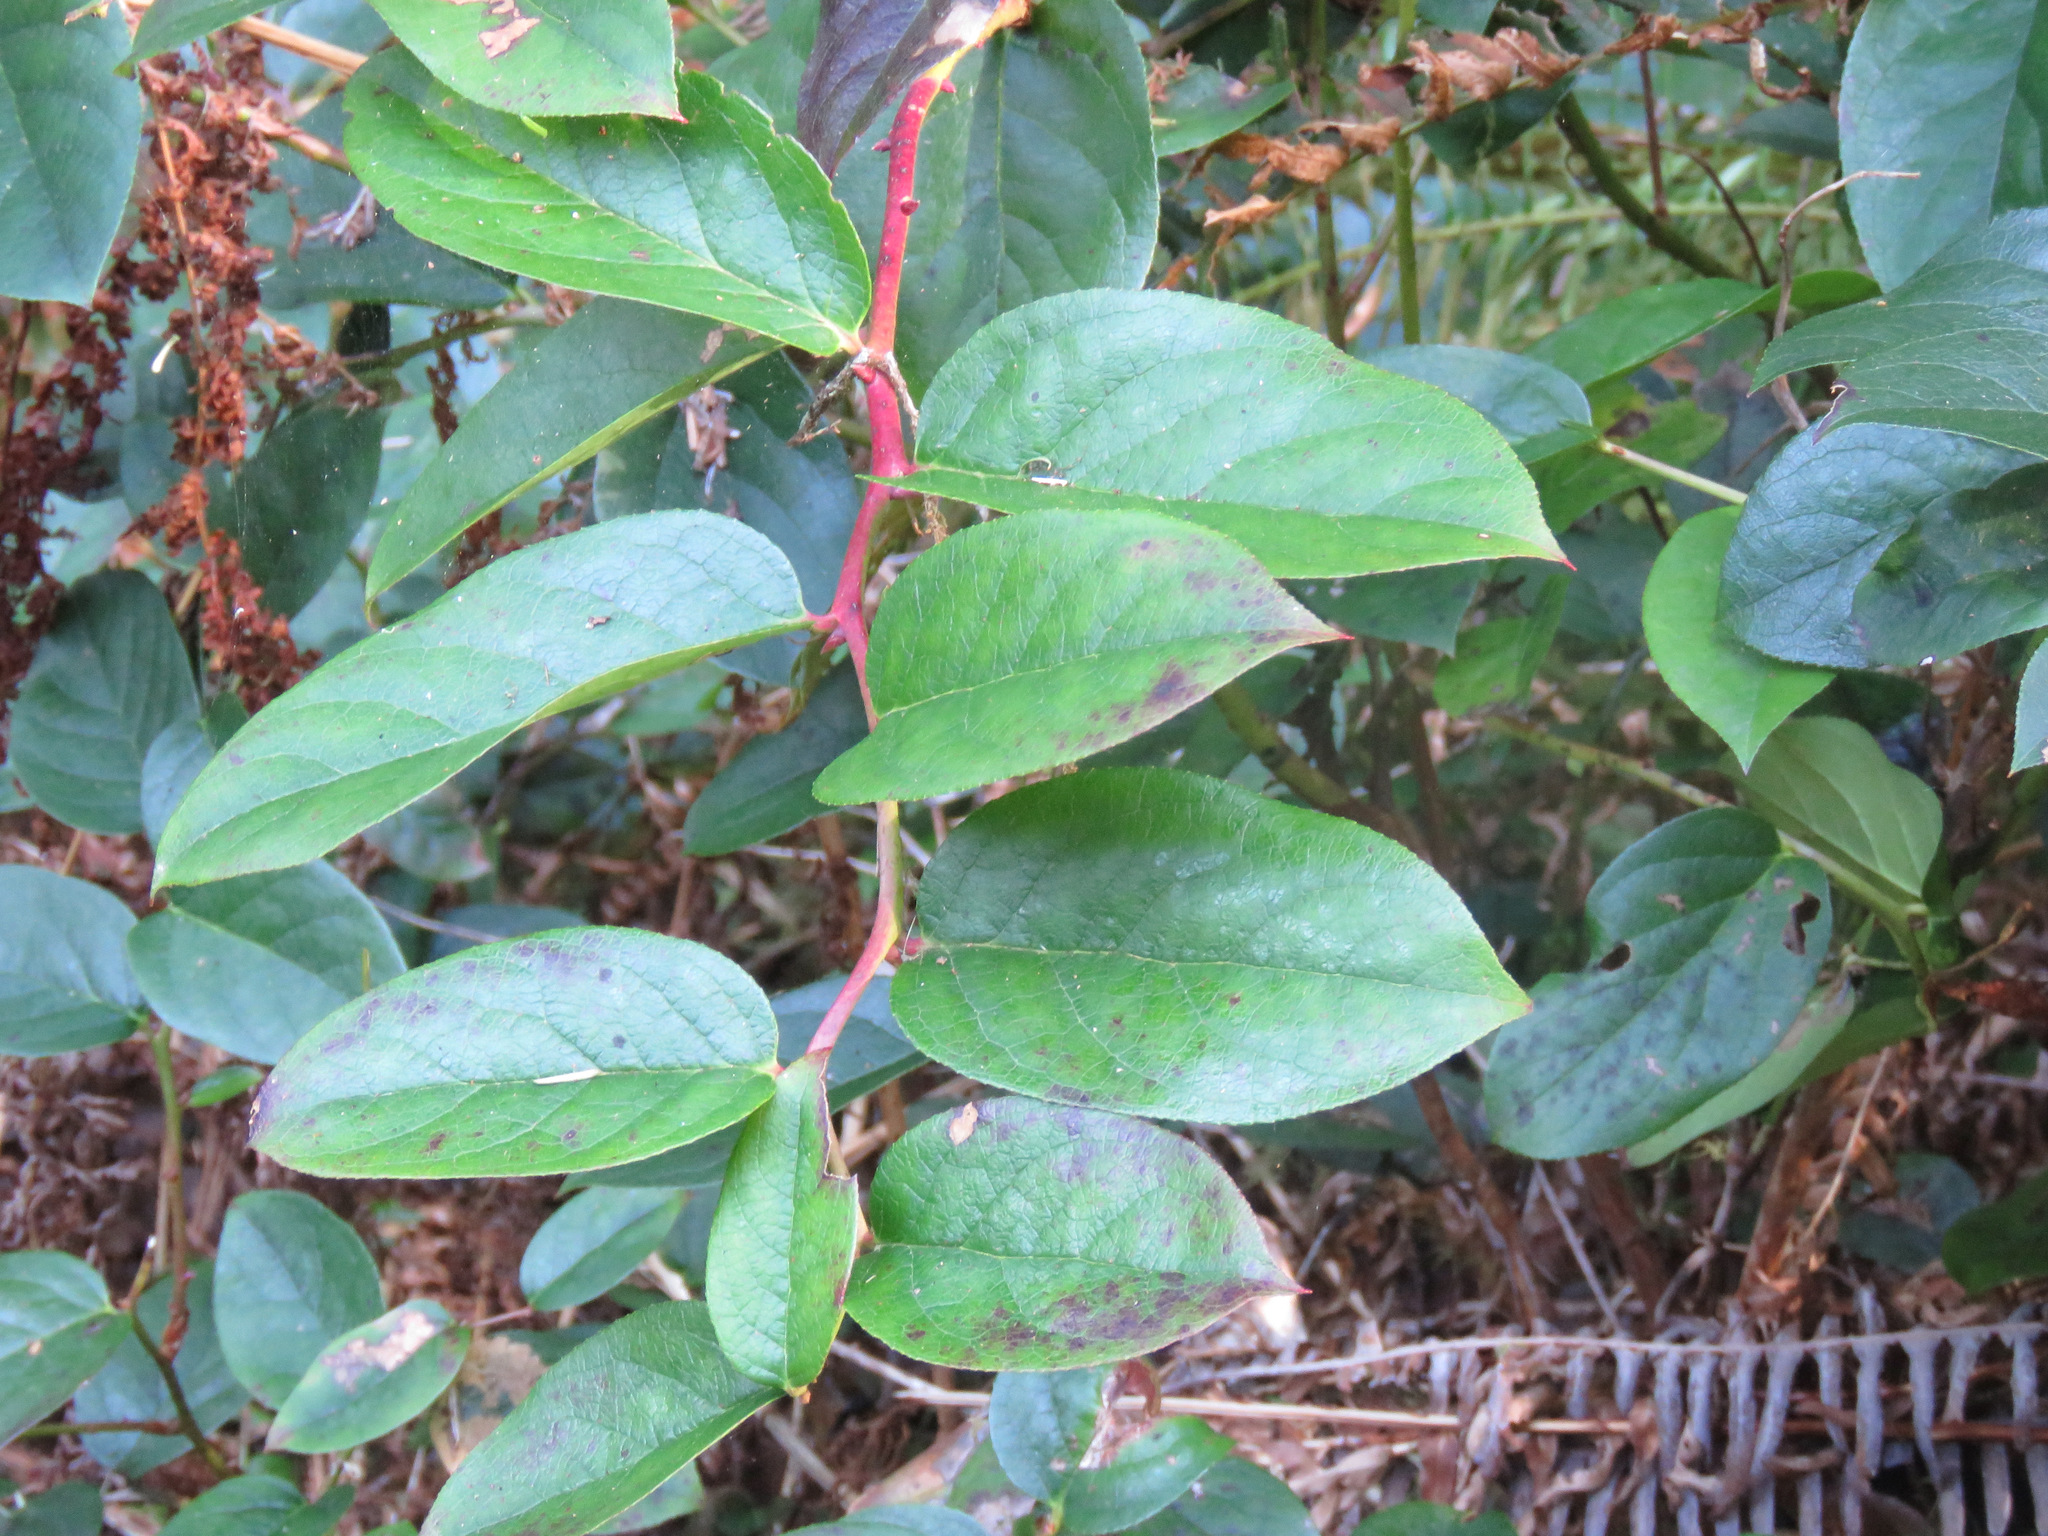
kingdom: Plantae
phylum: Tracheophyta
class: Magnoliopsida
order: Ericales
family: Ericaceae
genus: Gaultheria
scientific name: Gaultheria shallon
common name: Shallon
